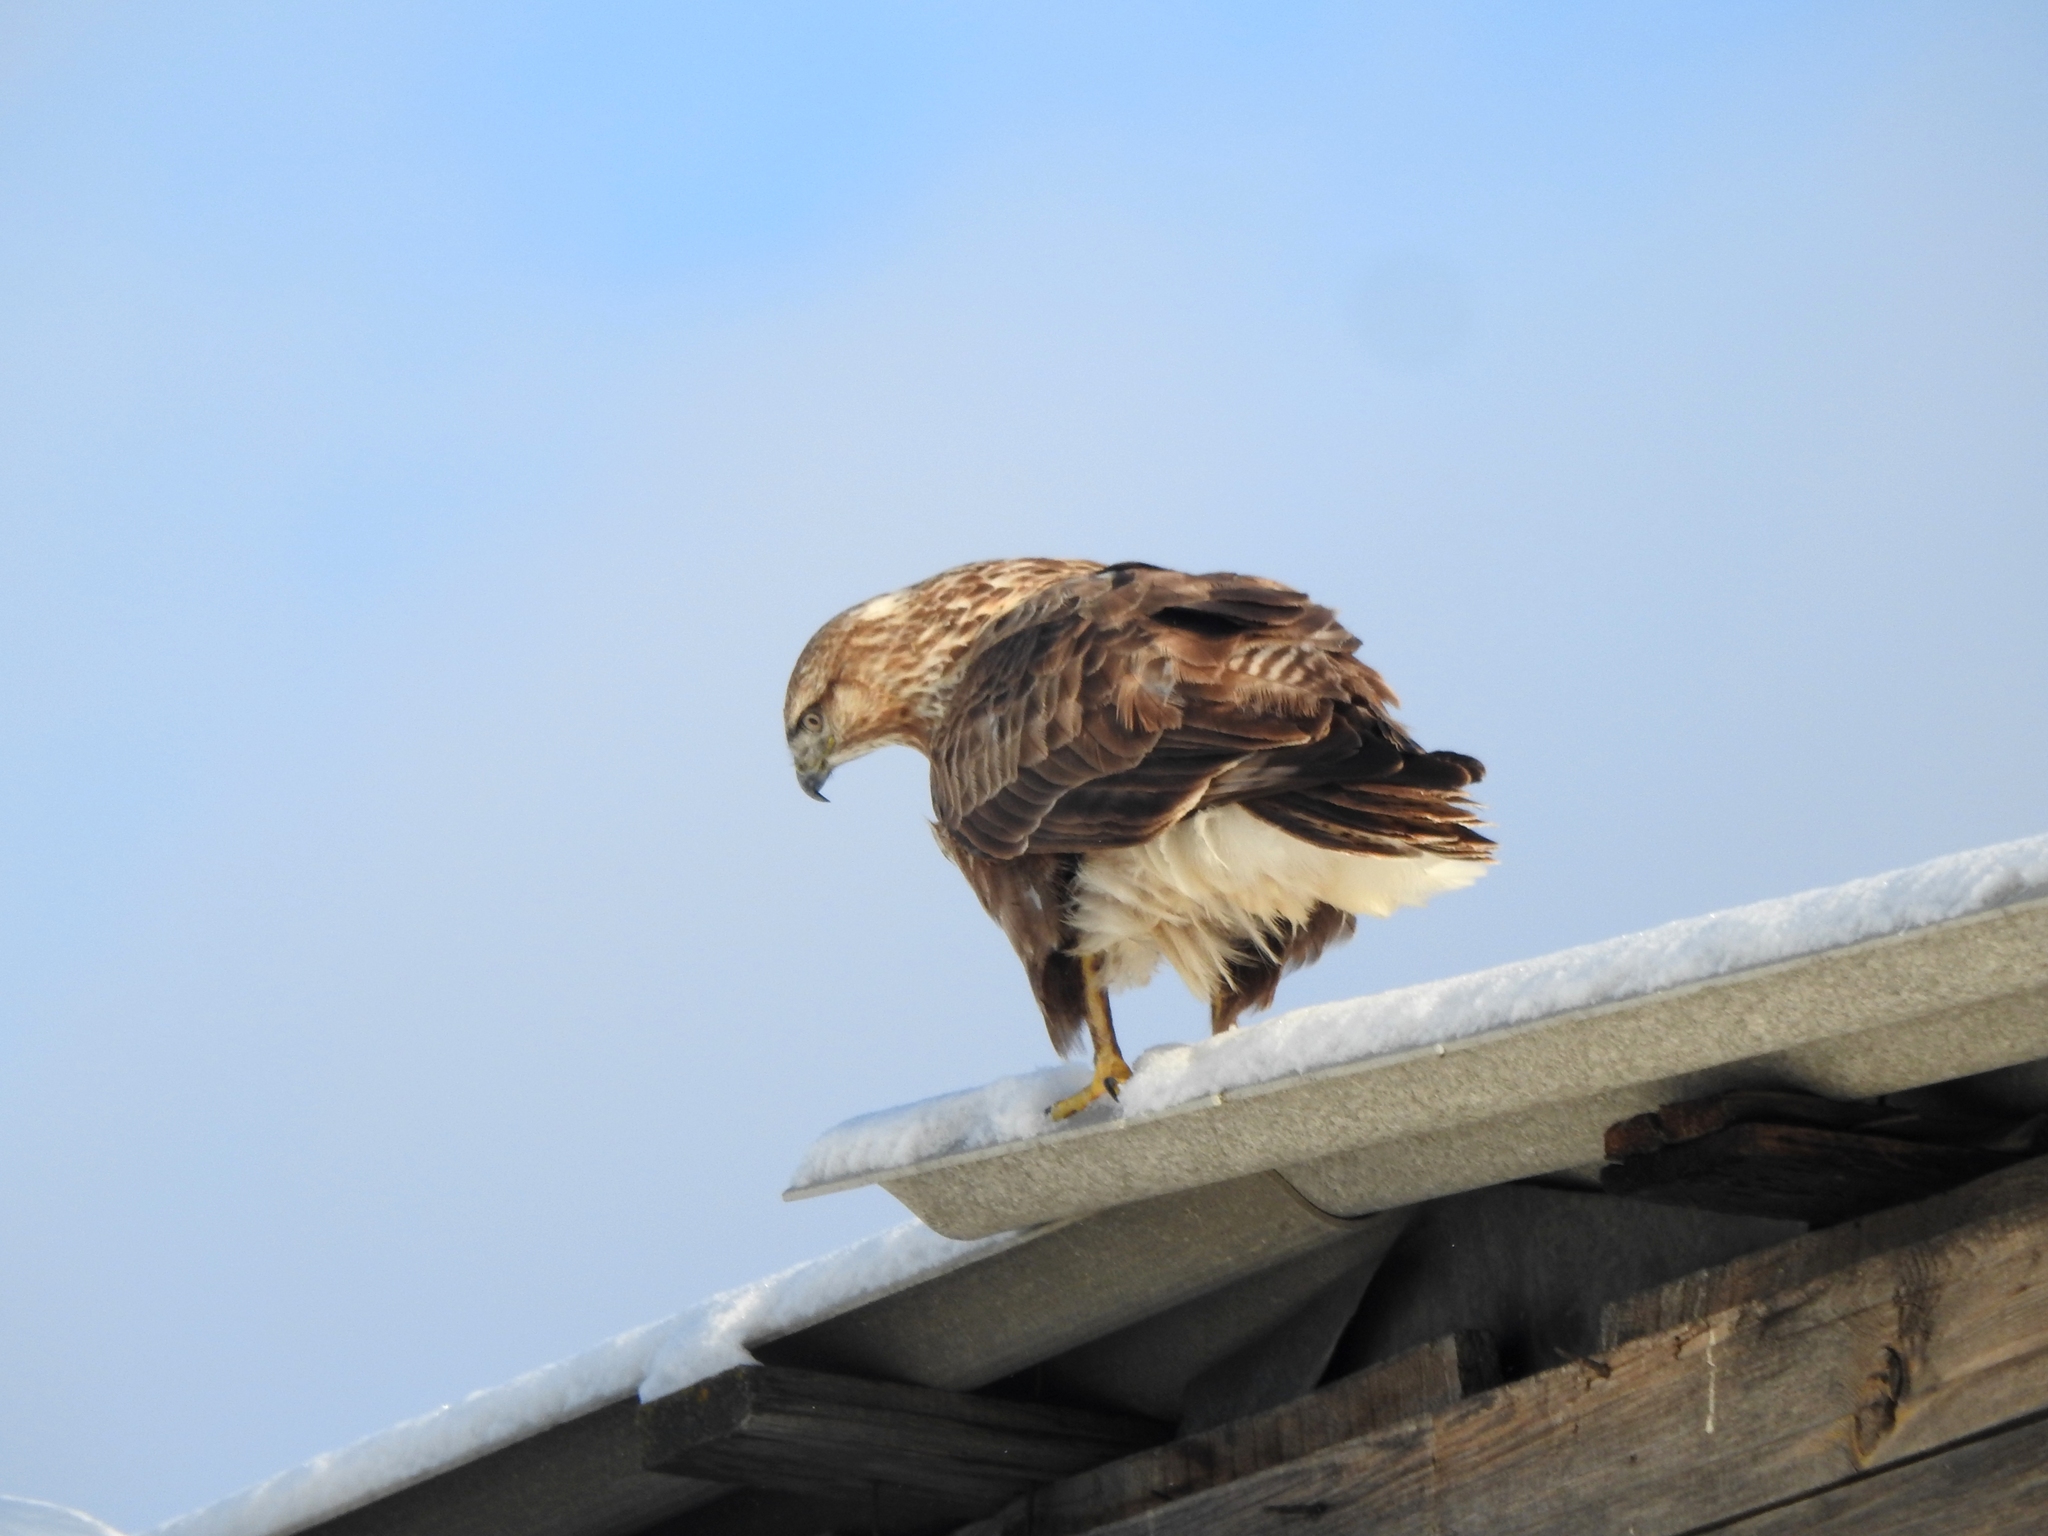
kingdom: Animalia
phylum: Chordata
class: Aves
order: Accipitriformes
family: Accipitridae
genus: Buteo
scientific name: Buteo hemilasius
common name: Upland buzzard
